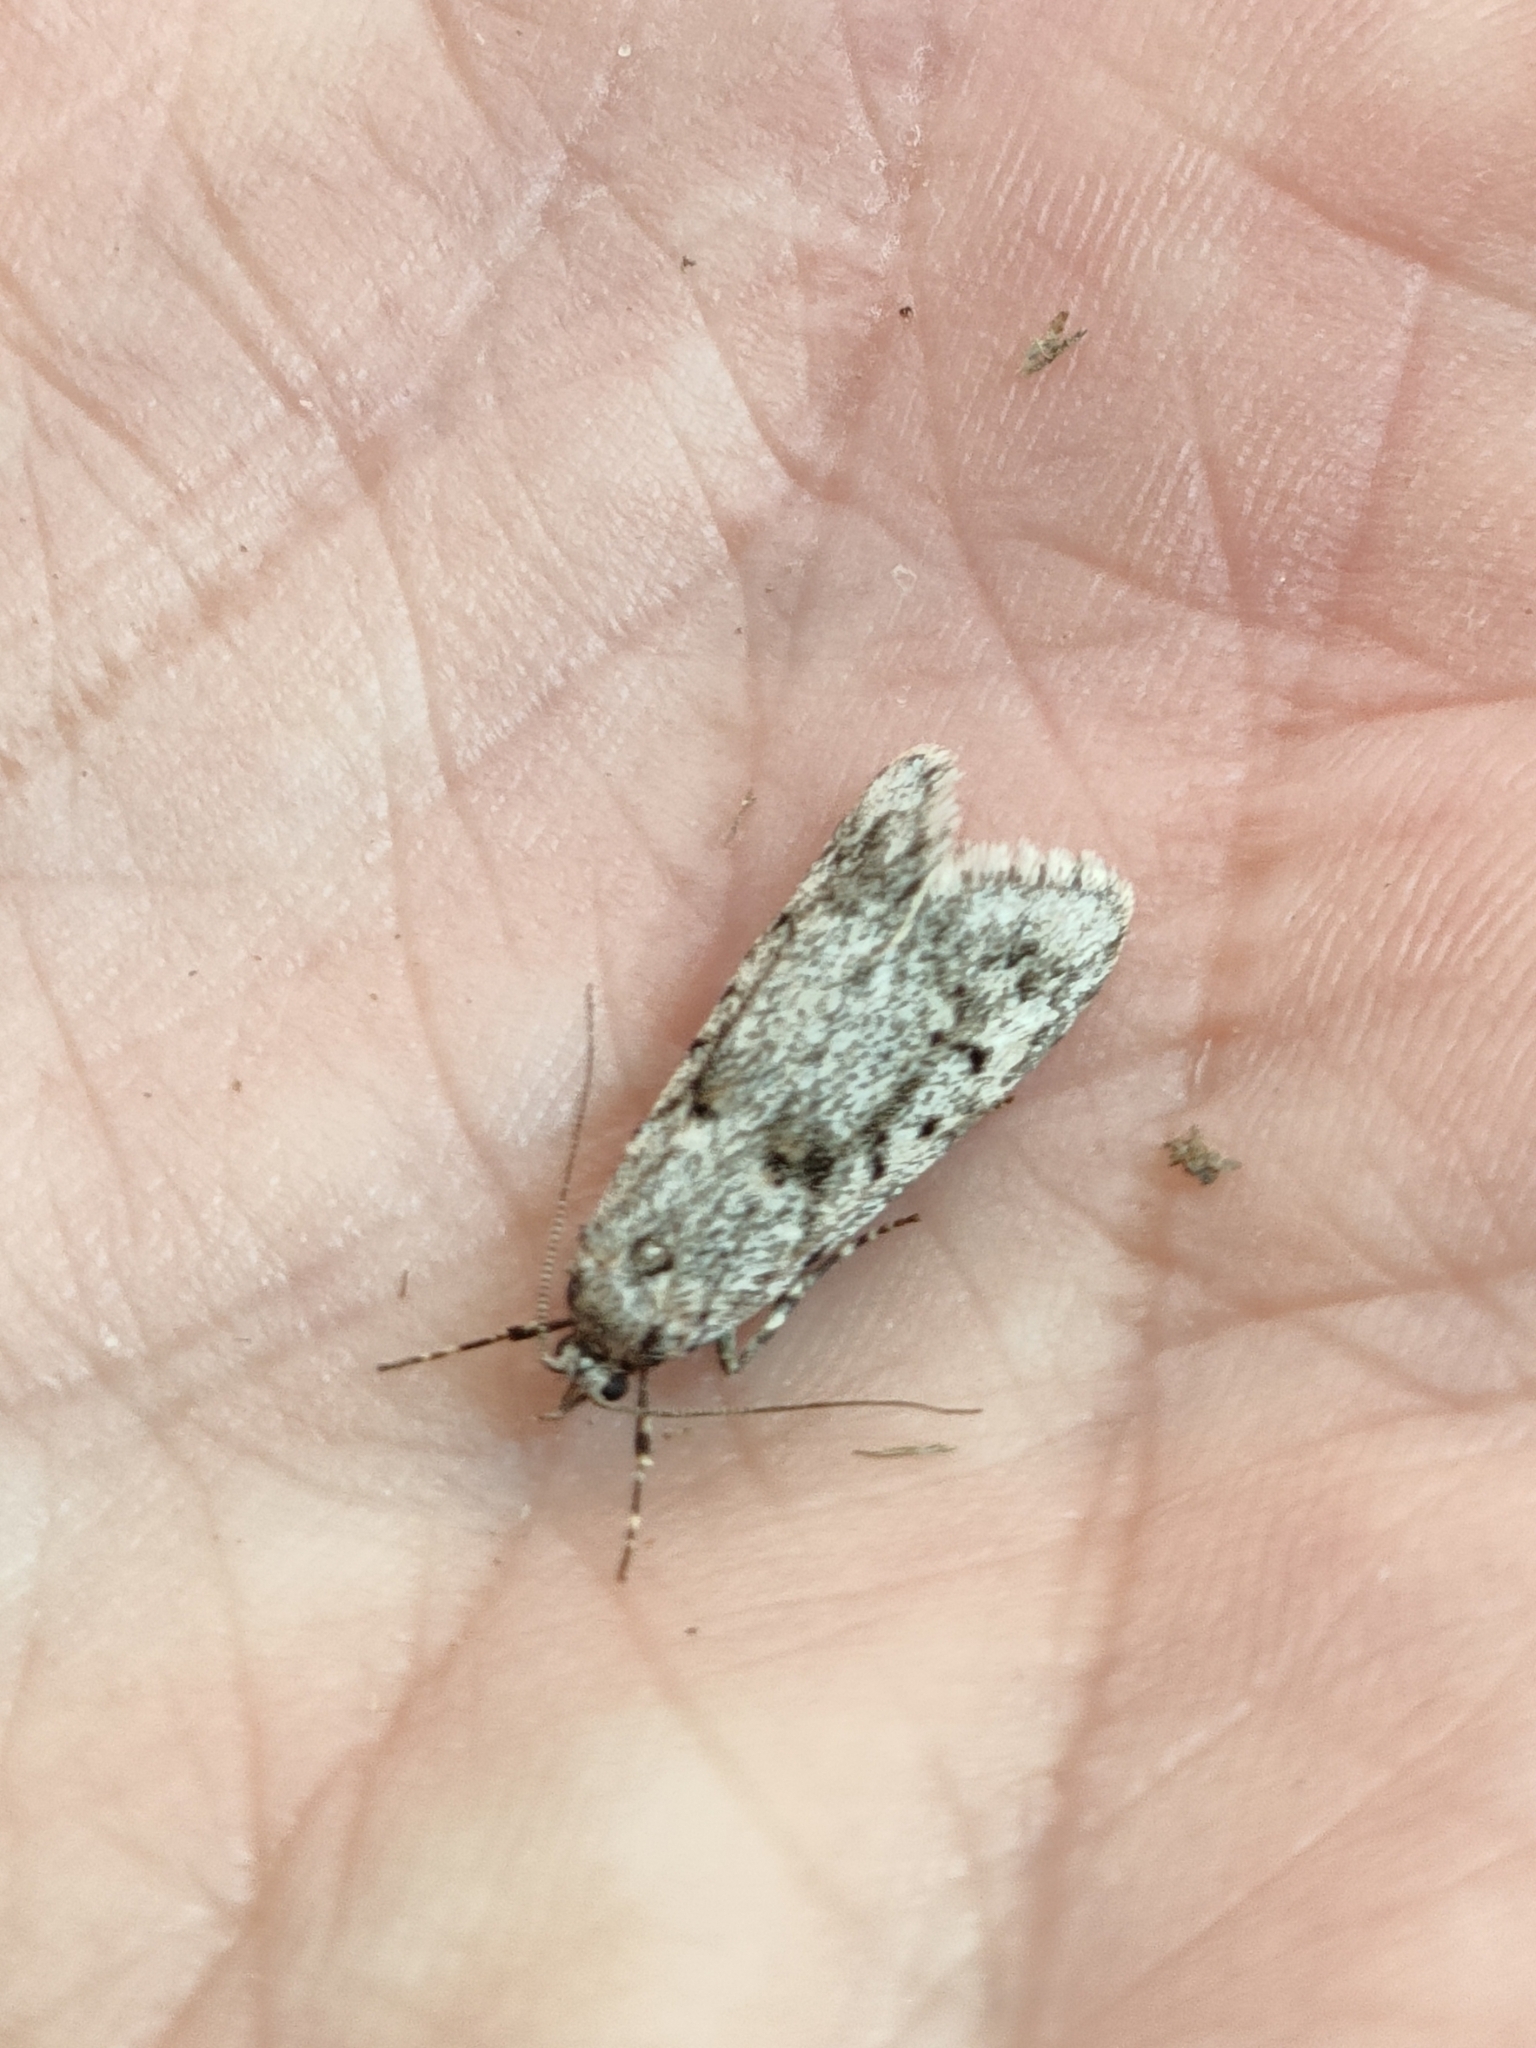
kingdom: Animalia
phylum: Arthropoda
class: Insecta
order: Lepidoptera
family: Lypusidae
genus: Diurnea
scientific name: Diurnea fagella
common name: March tubic
